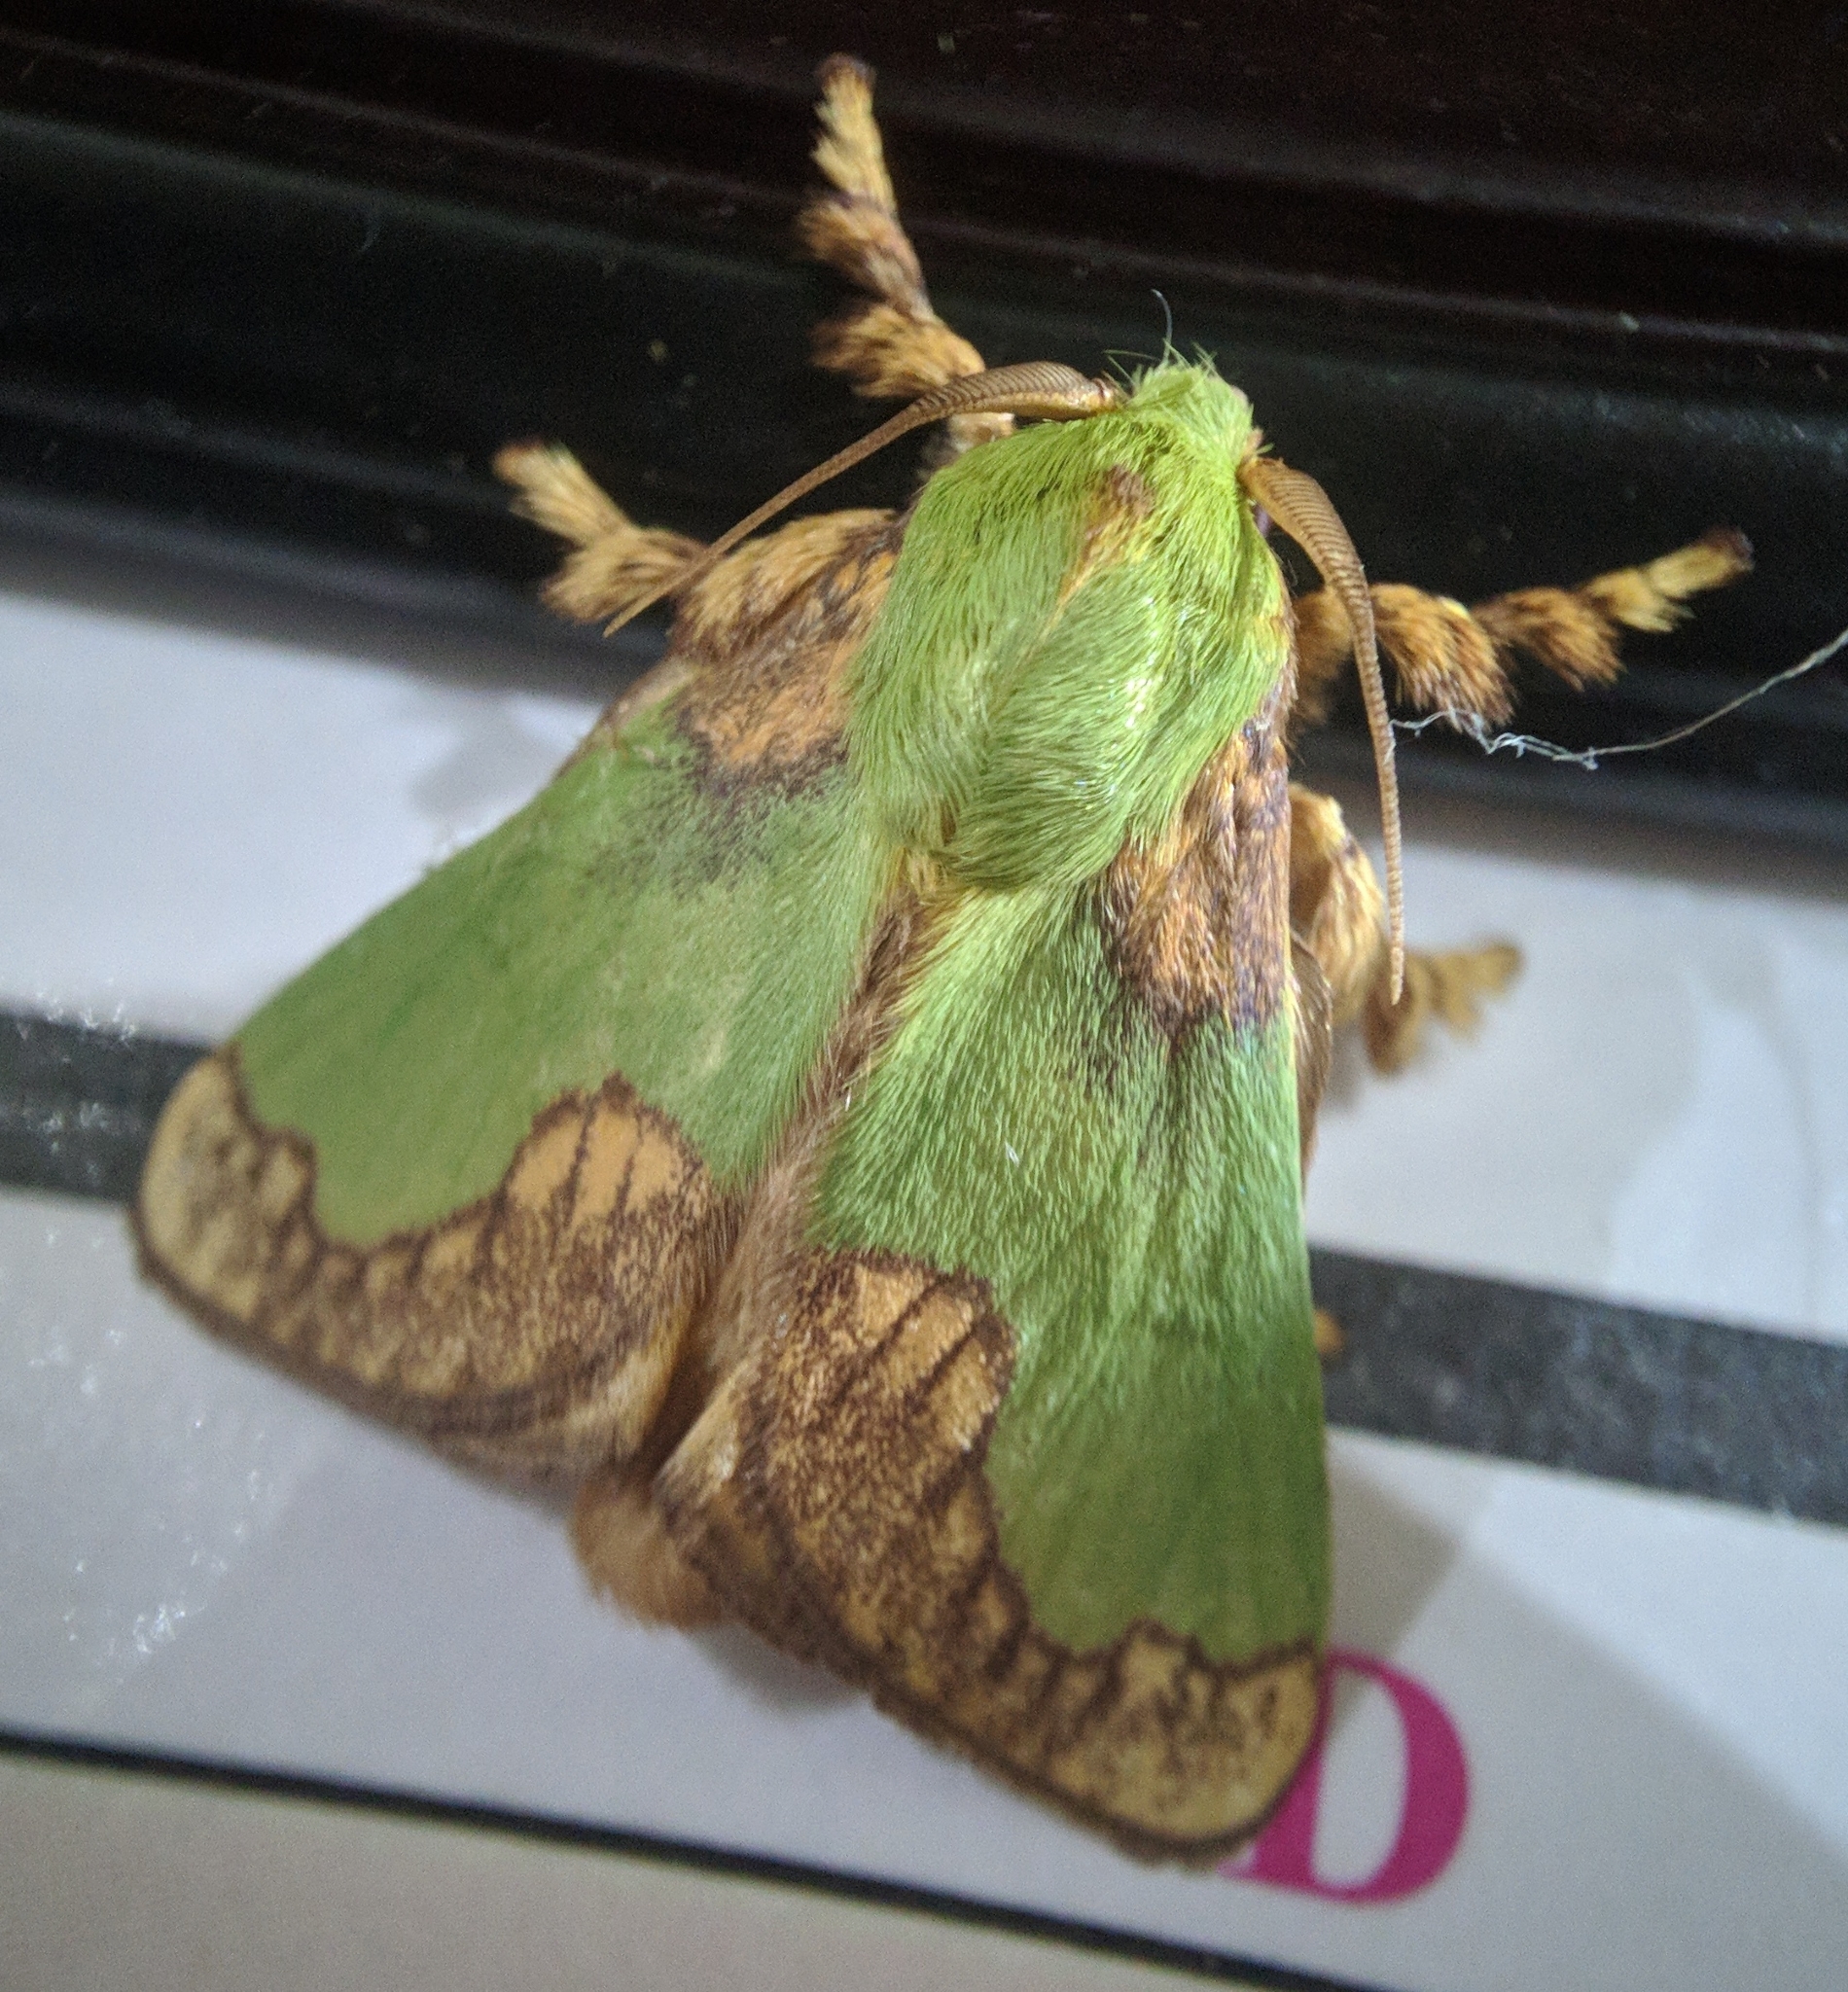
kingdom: Animalia
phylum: Arthropoda
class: Insecta
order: Lepidoptera
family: Limacodidae
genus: Parasa
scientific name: Parasa pastoralis
